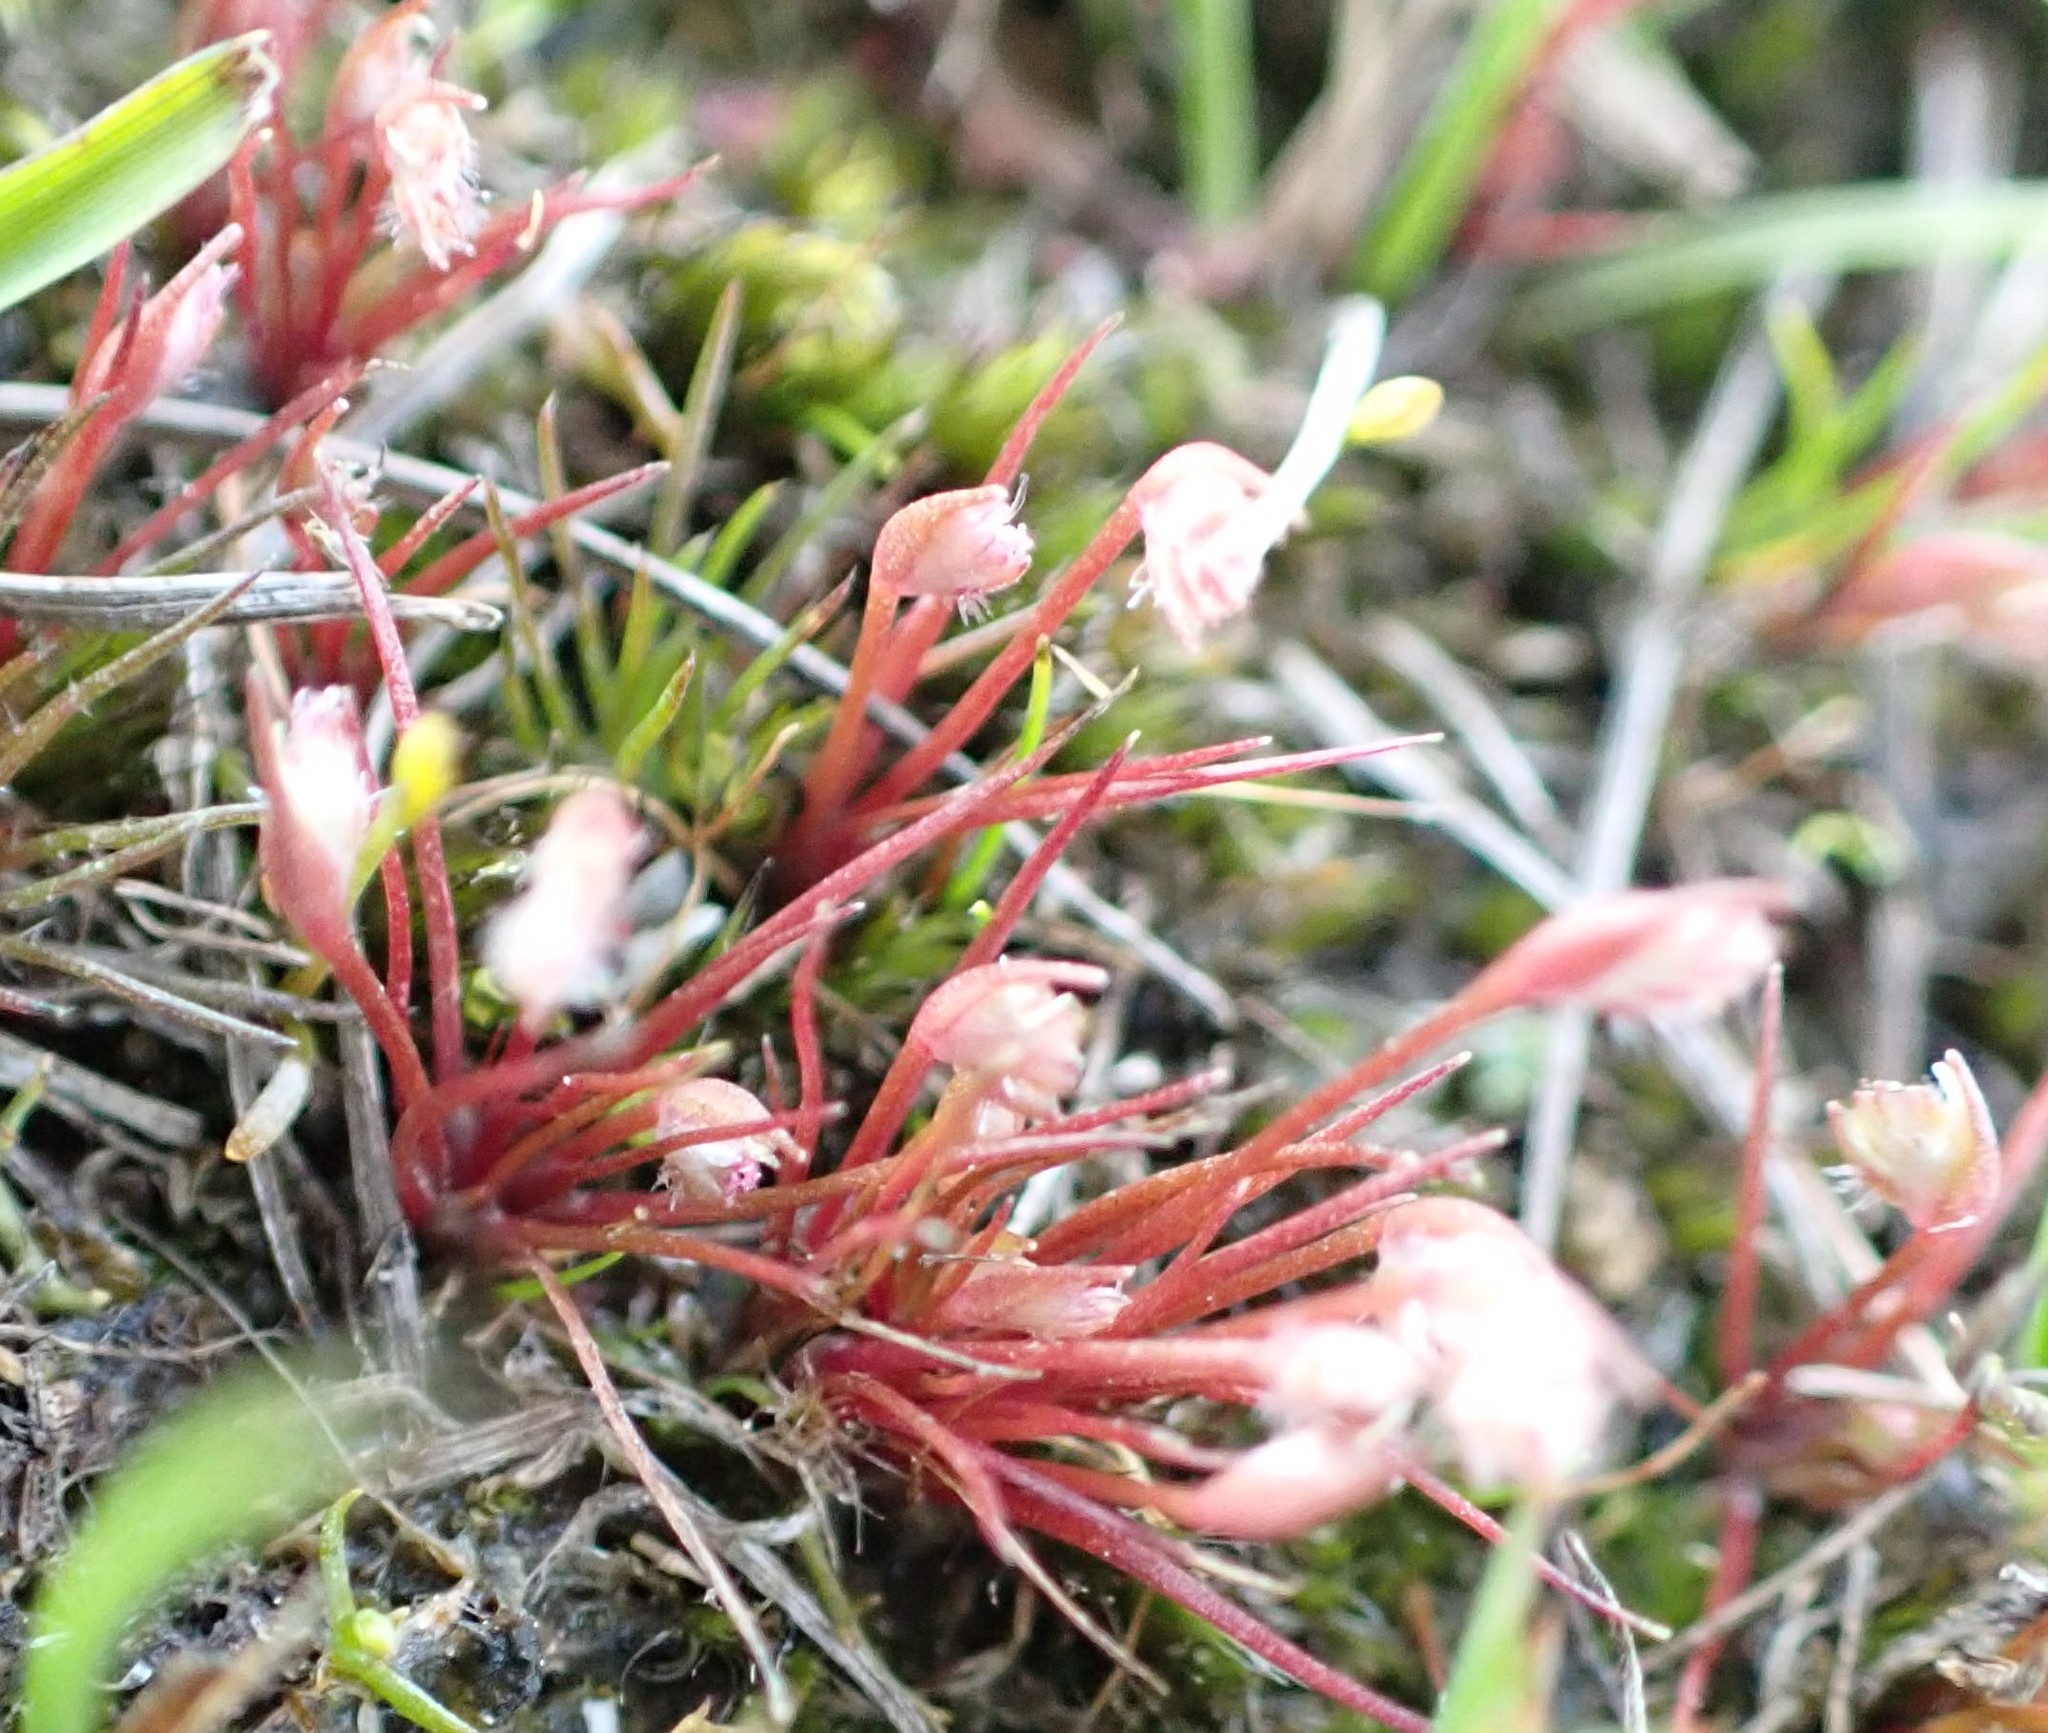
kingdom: Plantae
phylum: Tracheophyta
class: Liliopsida
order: Poales
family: Restionaceae
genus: Aphelia
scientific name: Aphelia gracilis
